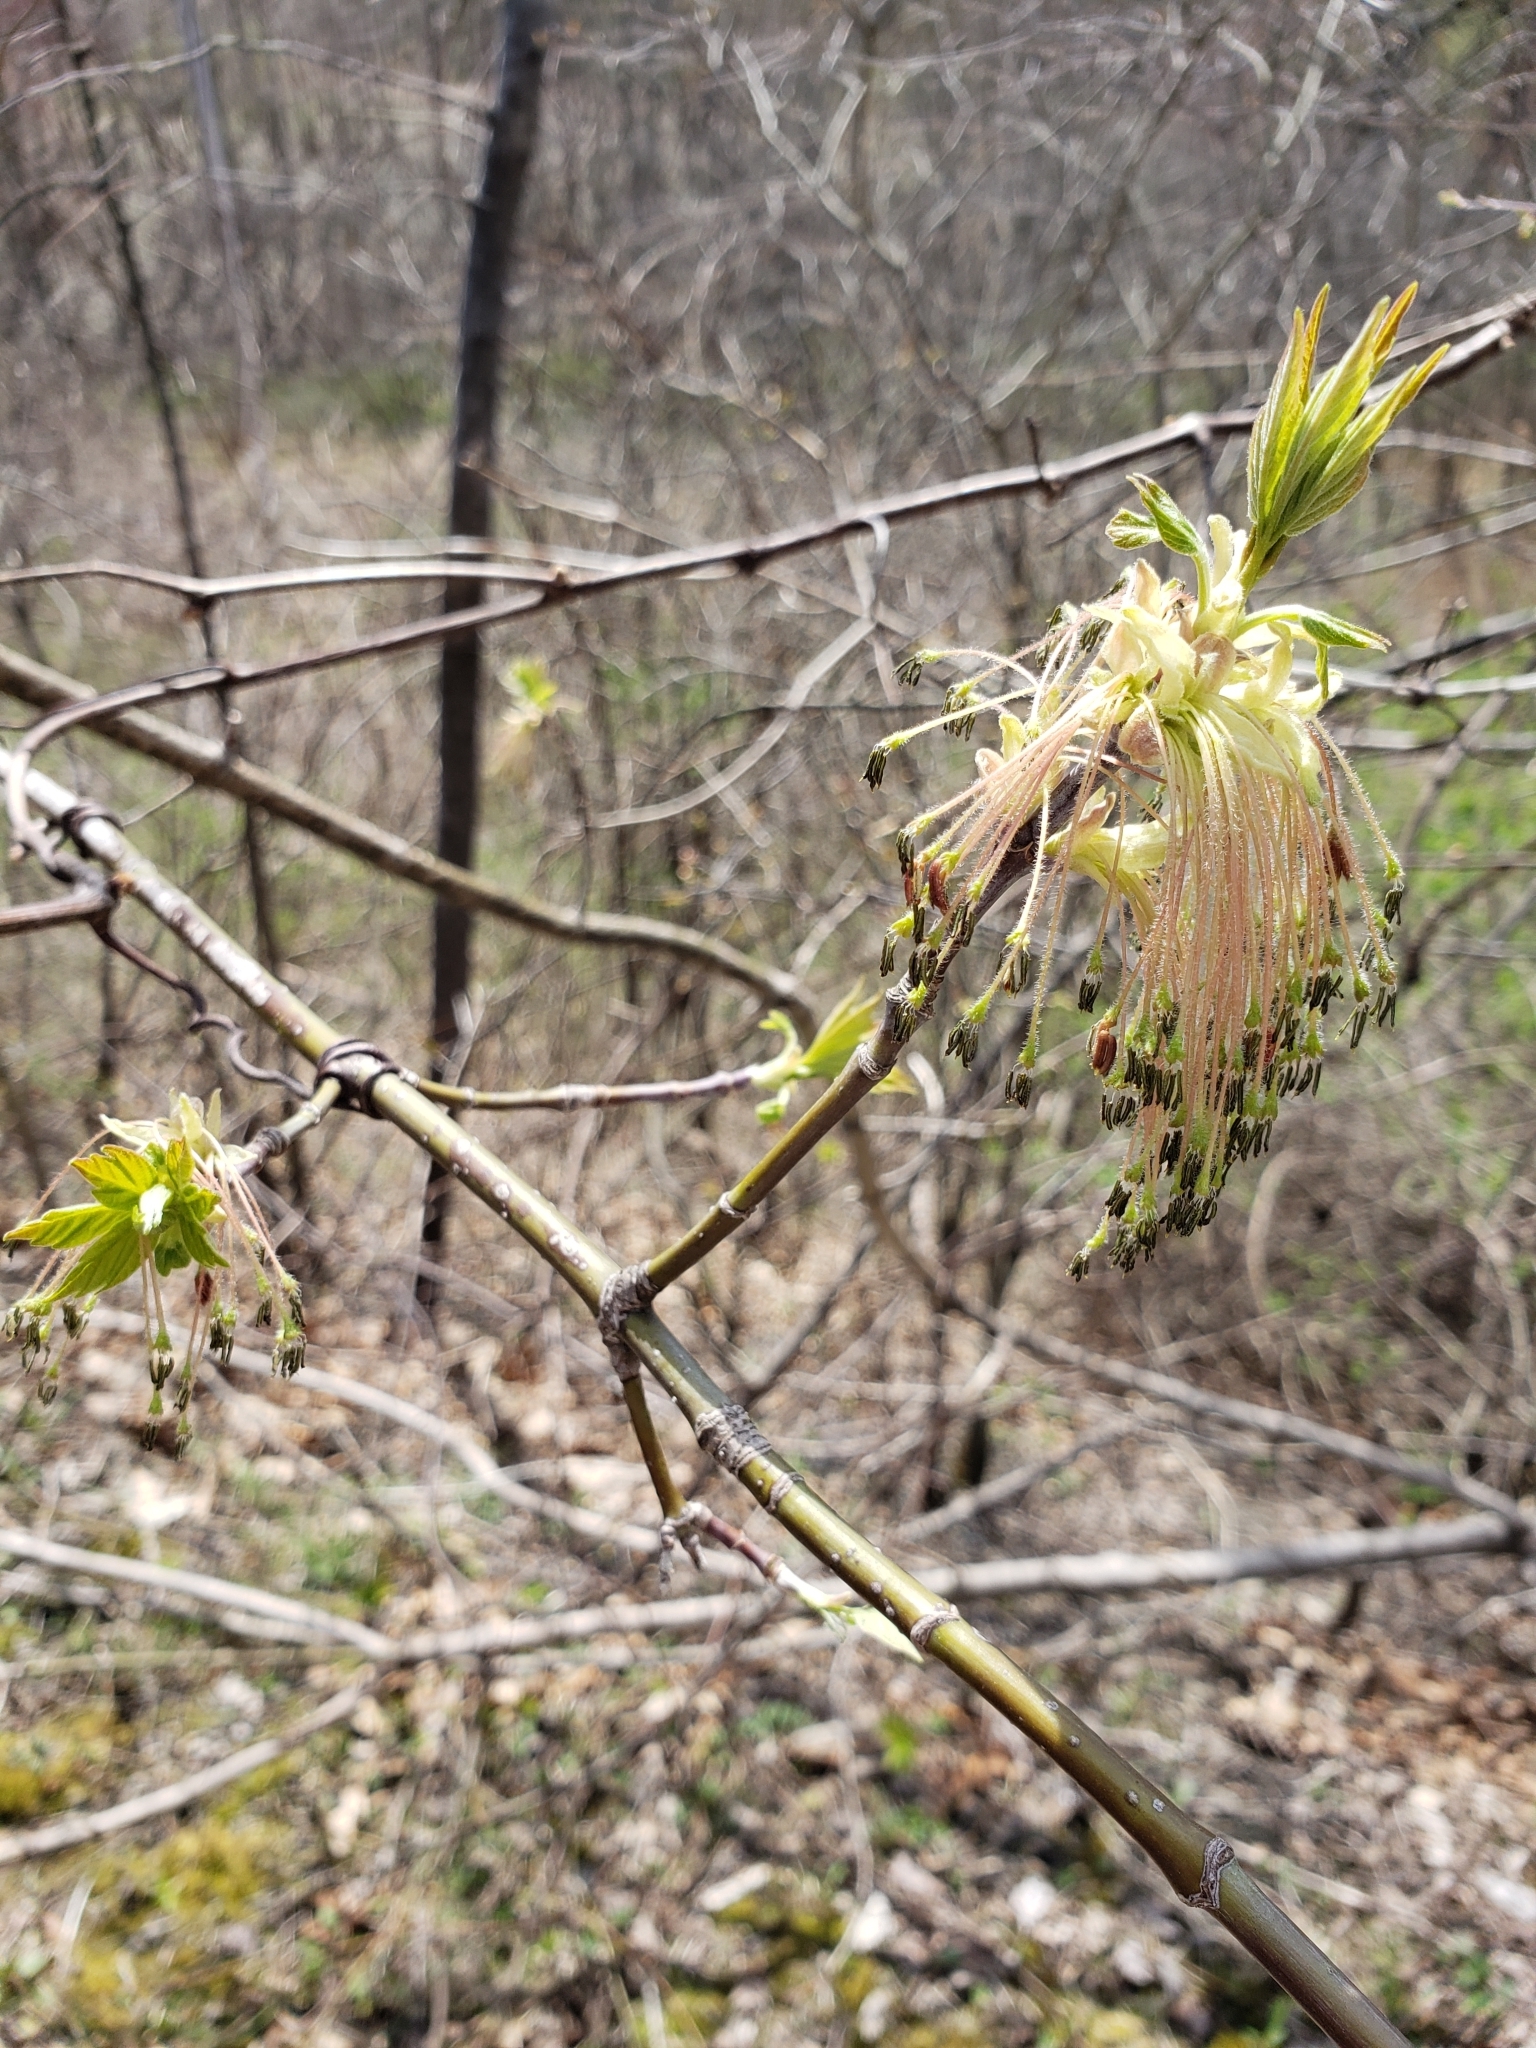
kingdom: Plantae
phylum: Tracheophyta
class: Magnoliopsida
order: Sapindales
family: Sapindaceae
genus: Acer
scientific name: Acer negundo
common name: Ashleaf maple
